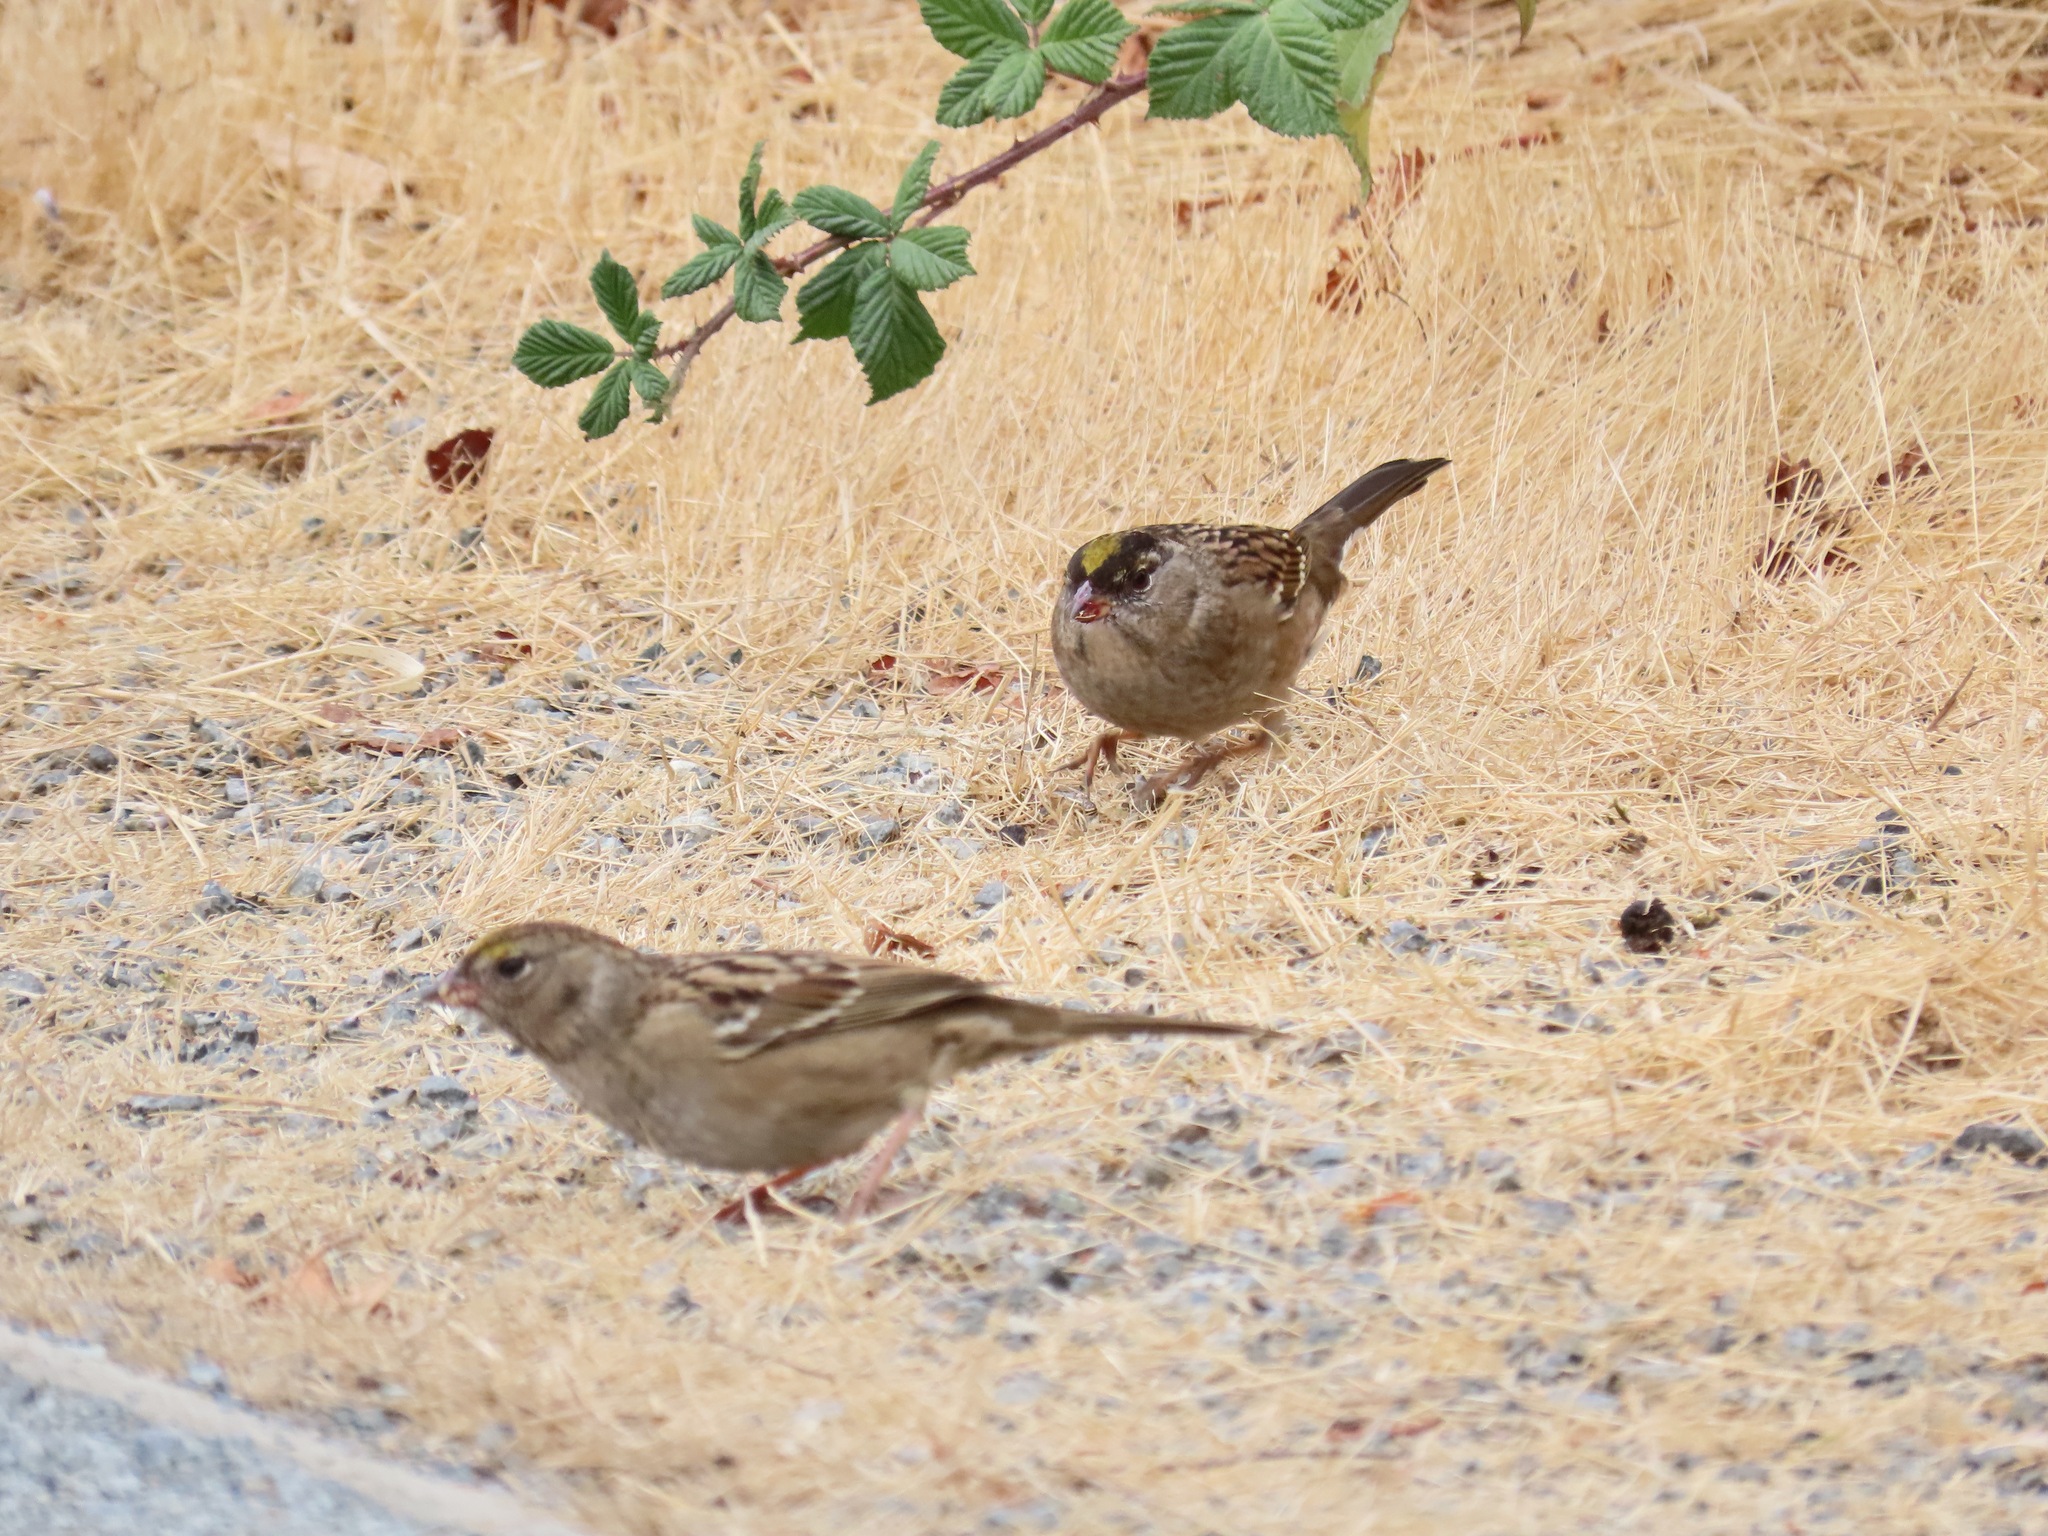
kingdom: Animalia
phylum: Chordata
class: Aves
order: Passeriformes
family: Passerellidae
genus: Zonotrichia
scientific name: Zonotrichia atricapilla
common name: Golden-crowned sparrow
